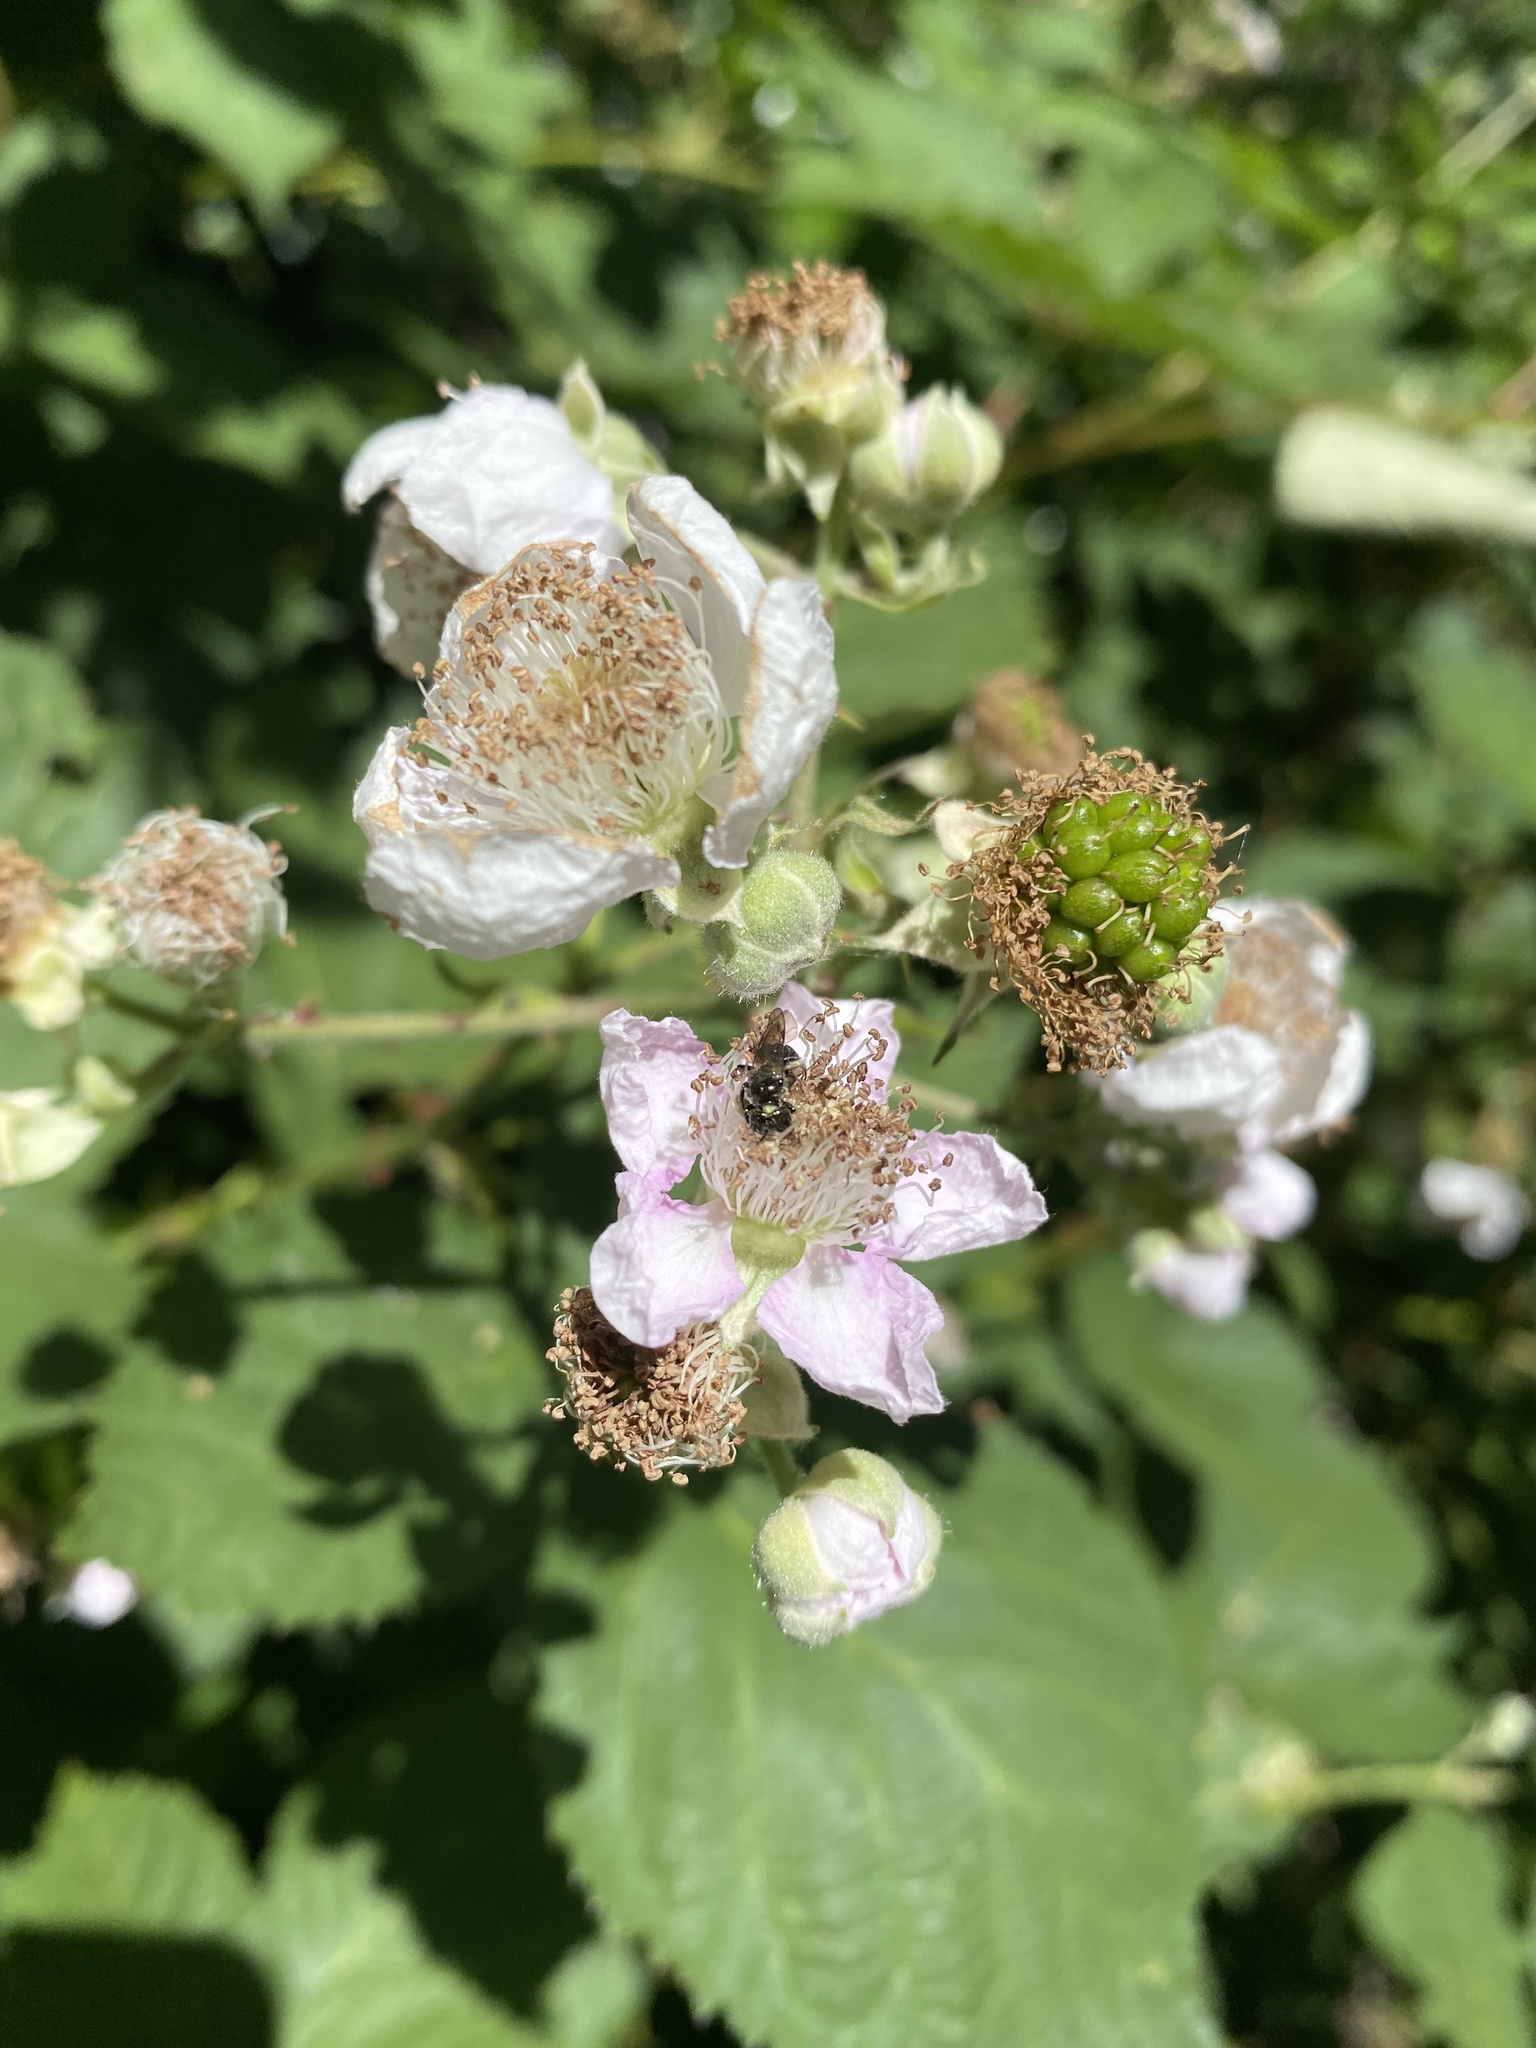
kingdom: Plantae
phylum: Tracheophyta
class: Magnoliopsida
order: Rosales
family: Rosaceae
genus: Rubus
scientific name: Rubus armeniacus
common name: Himalayan blackberry
